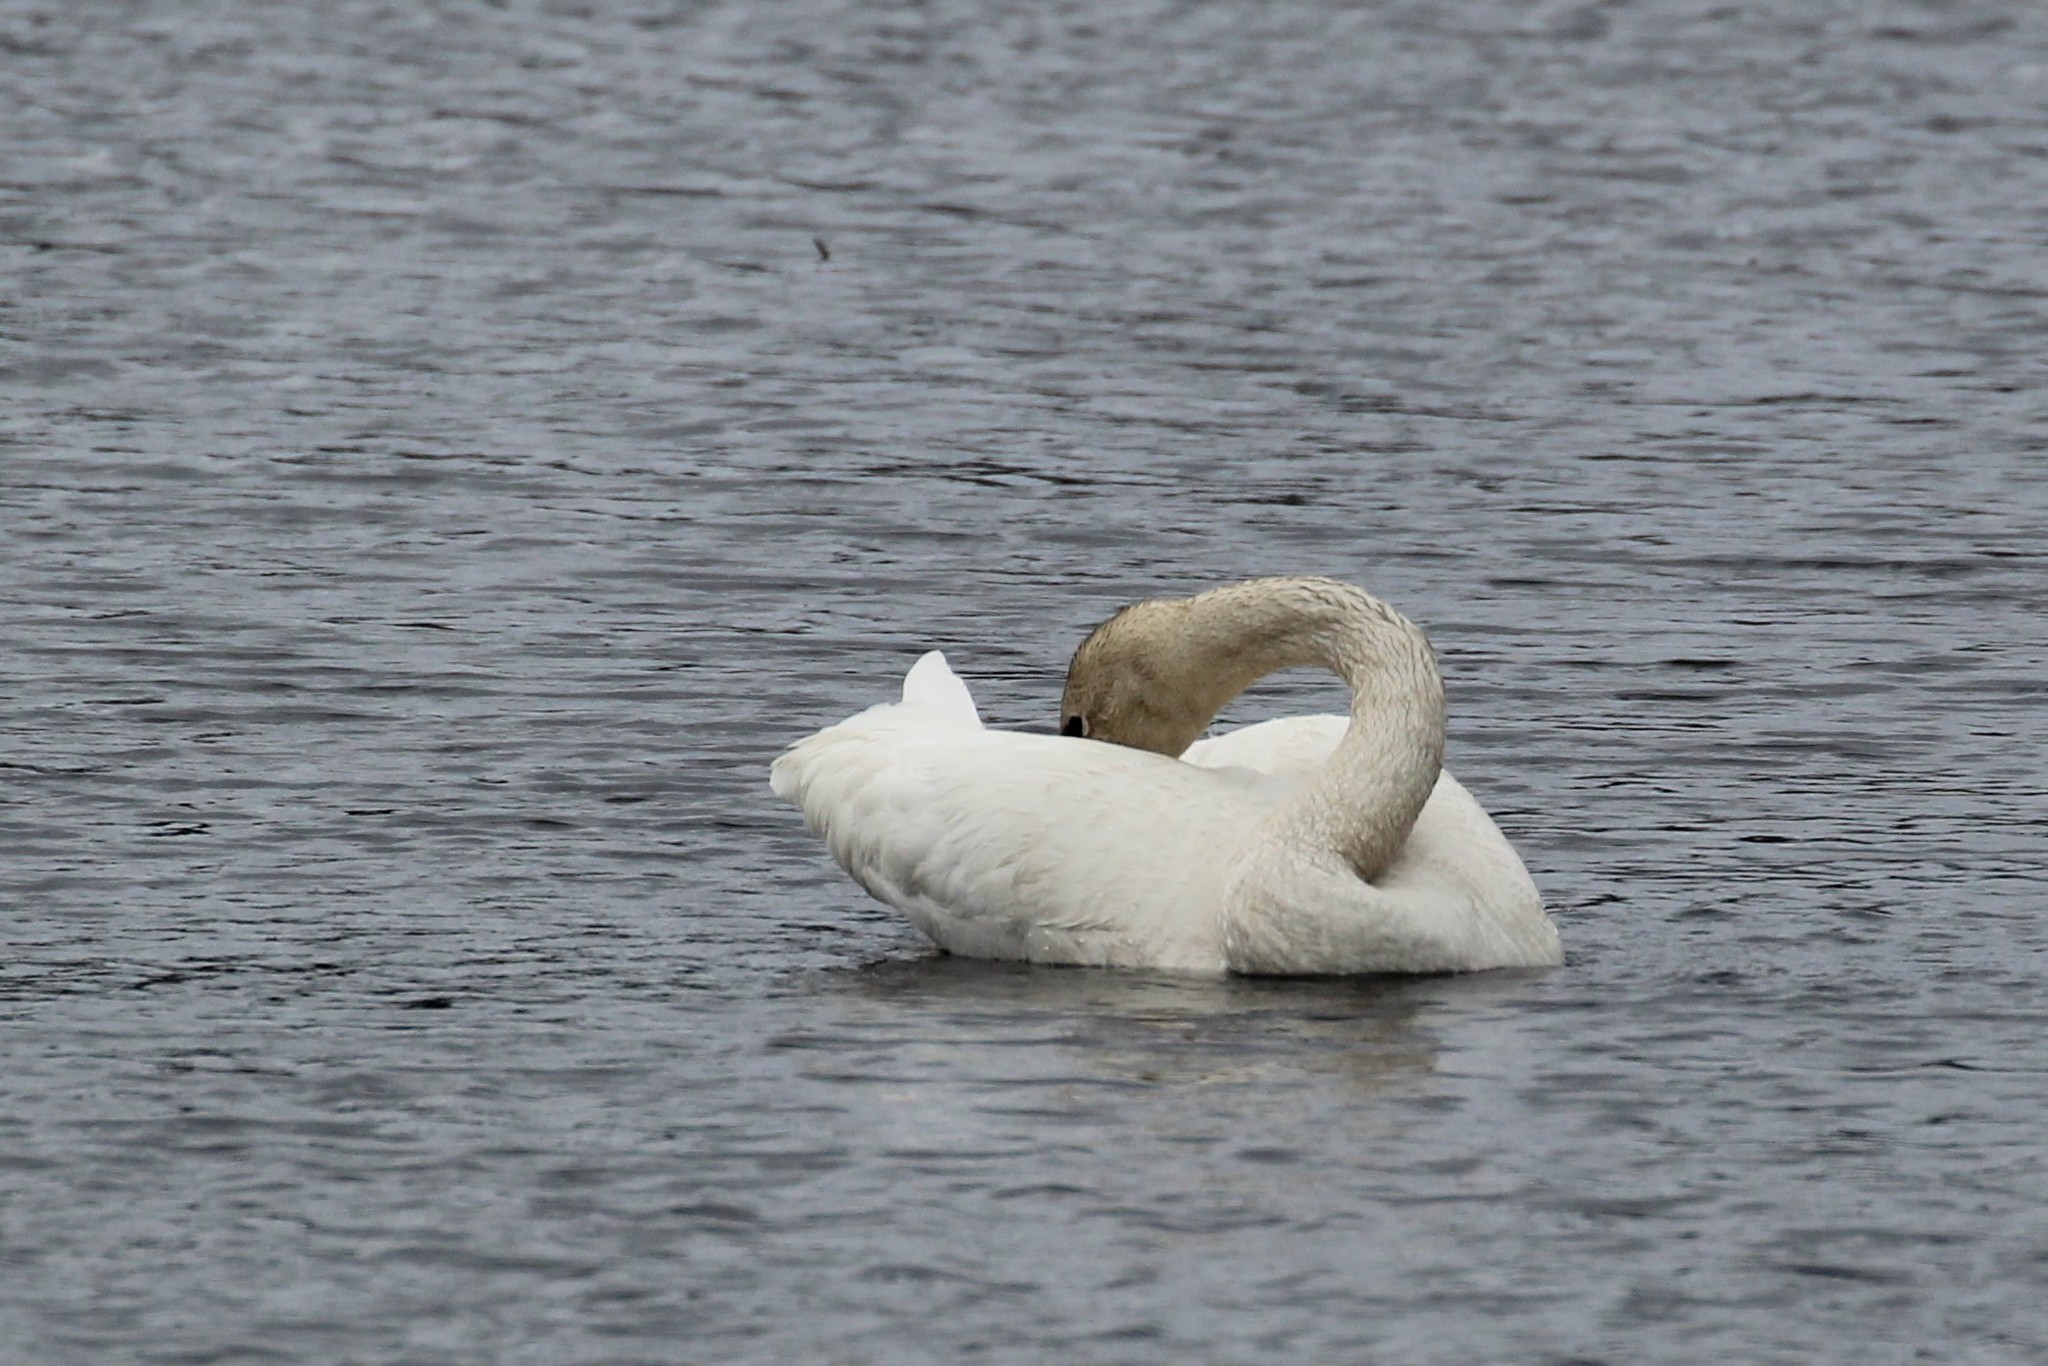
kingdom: Animalia
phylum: Chordata
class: Aves
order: Anseriformes
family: Anatidae
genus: Cygnus
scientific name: Cygnus buccinator
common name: Trumpeter swan
